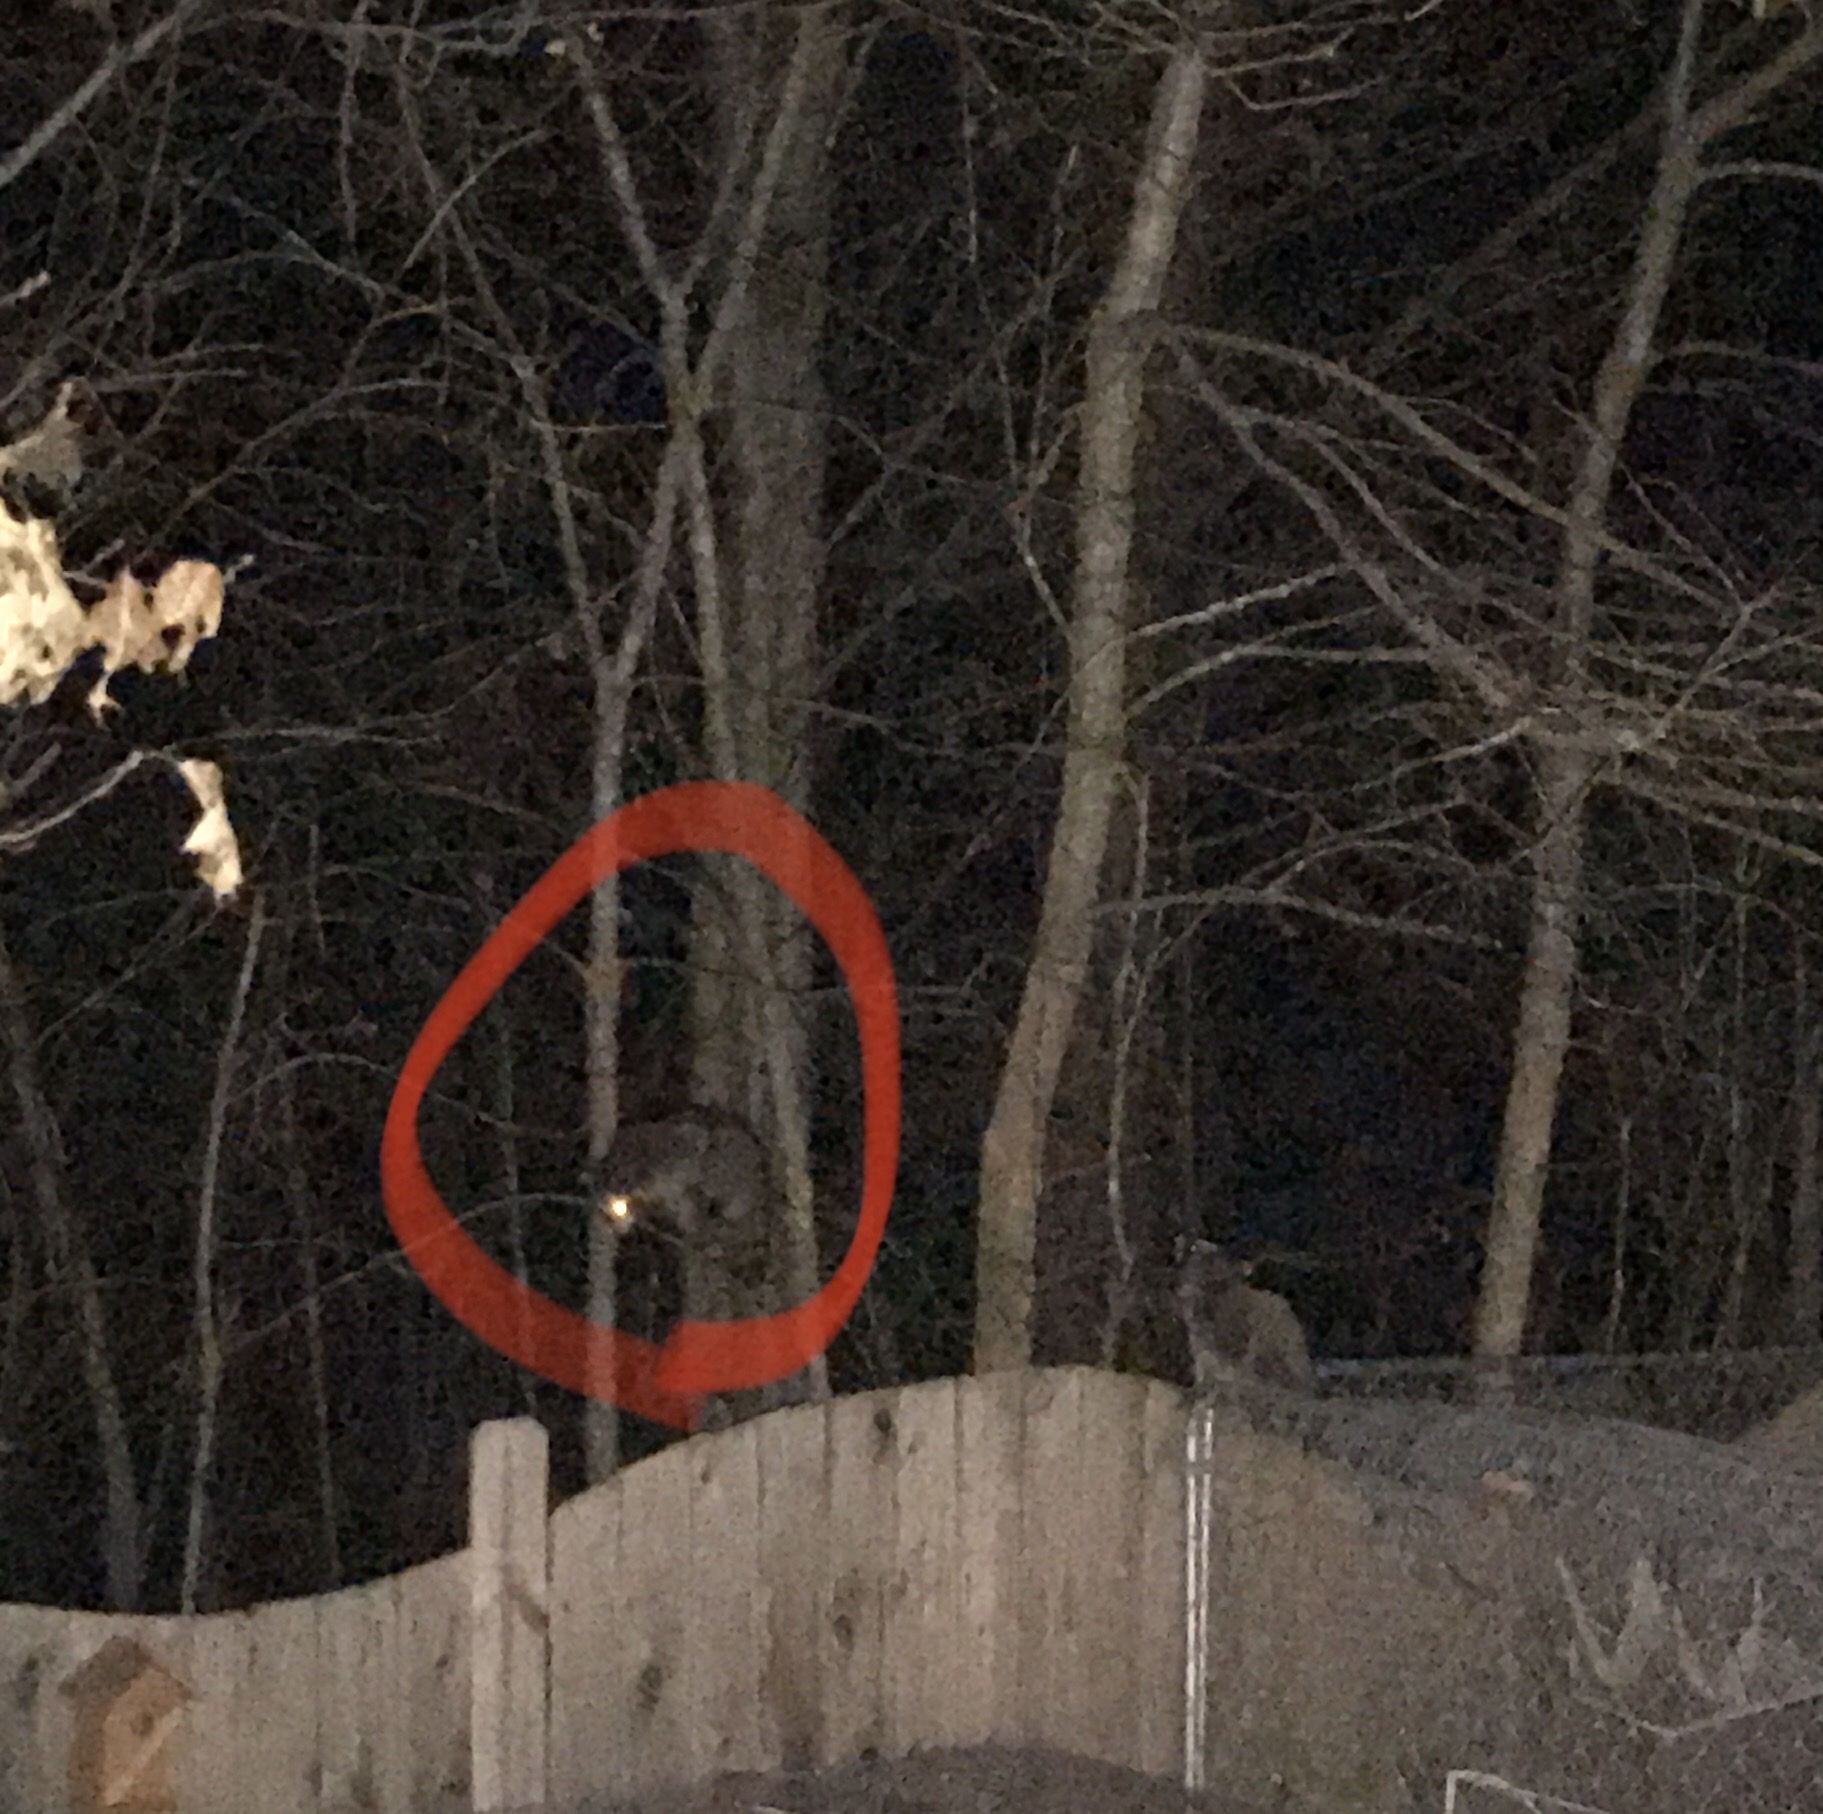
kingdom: Animalia
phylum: Chordata
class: Mammalia
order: Carnivora
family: Procyonidae
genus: Procyon
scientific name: Procyon lotor
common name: Raccoon
